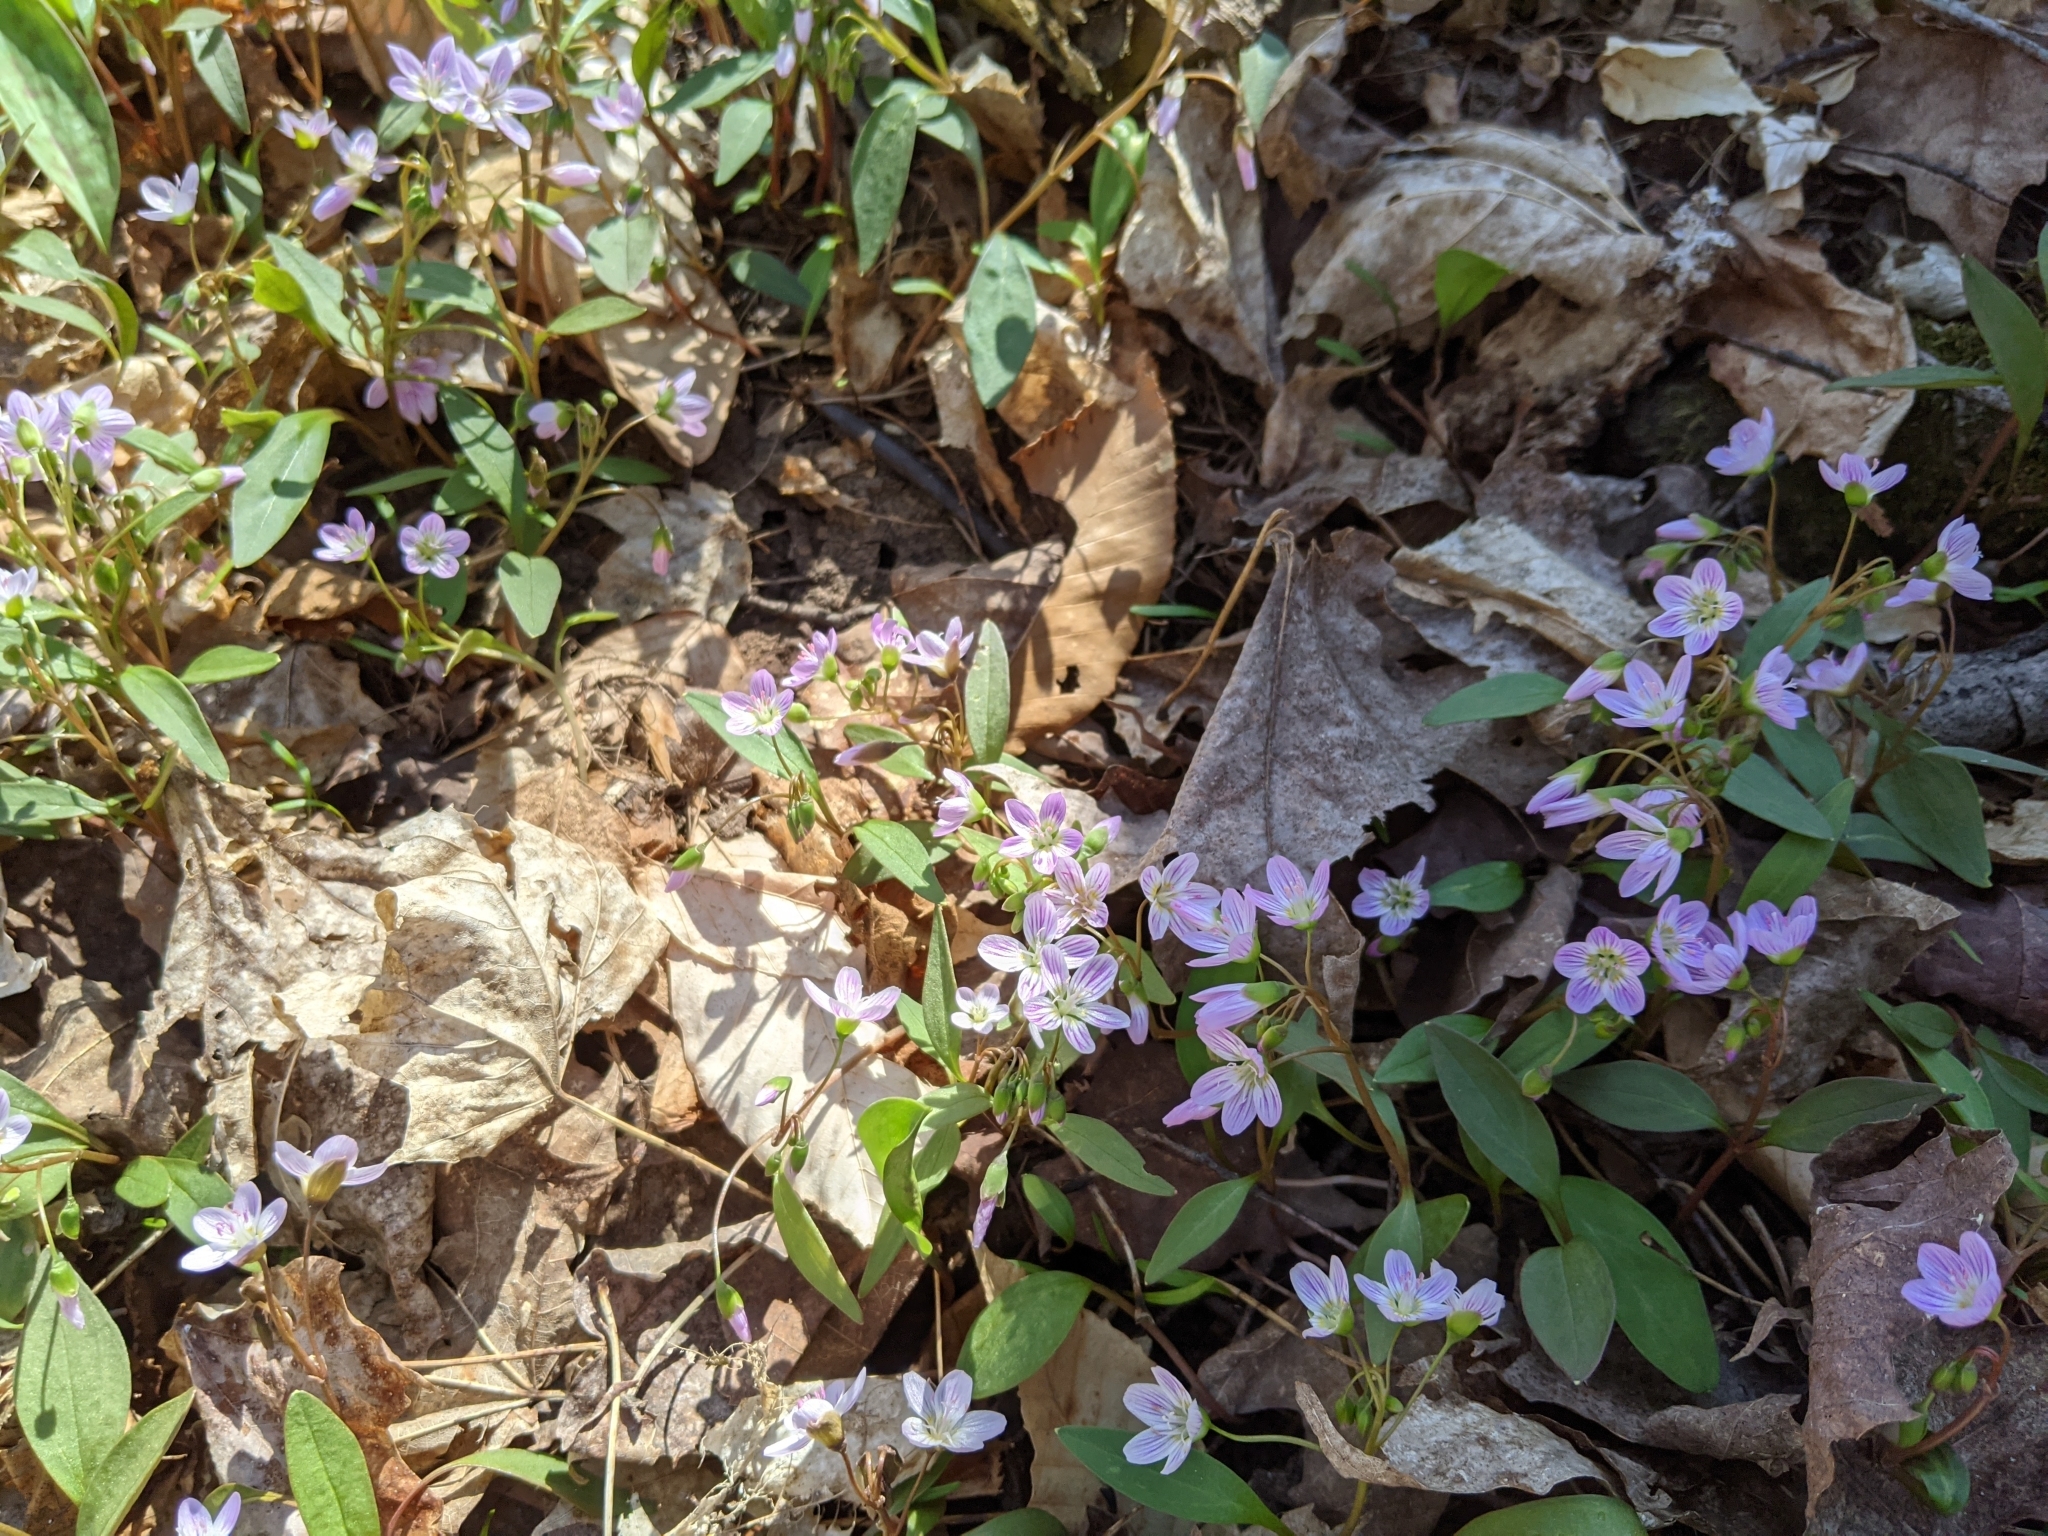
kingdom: Plantae
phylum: Tracheophyta
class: Magnoliopsida
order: Caryophyllales
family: Montiaceae
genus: Claytonia
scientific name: Claytonia caroliniana
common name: Carolina spring beauty
